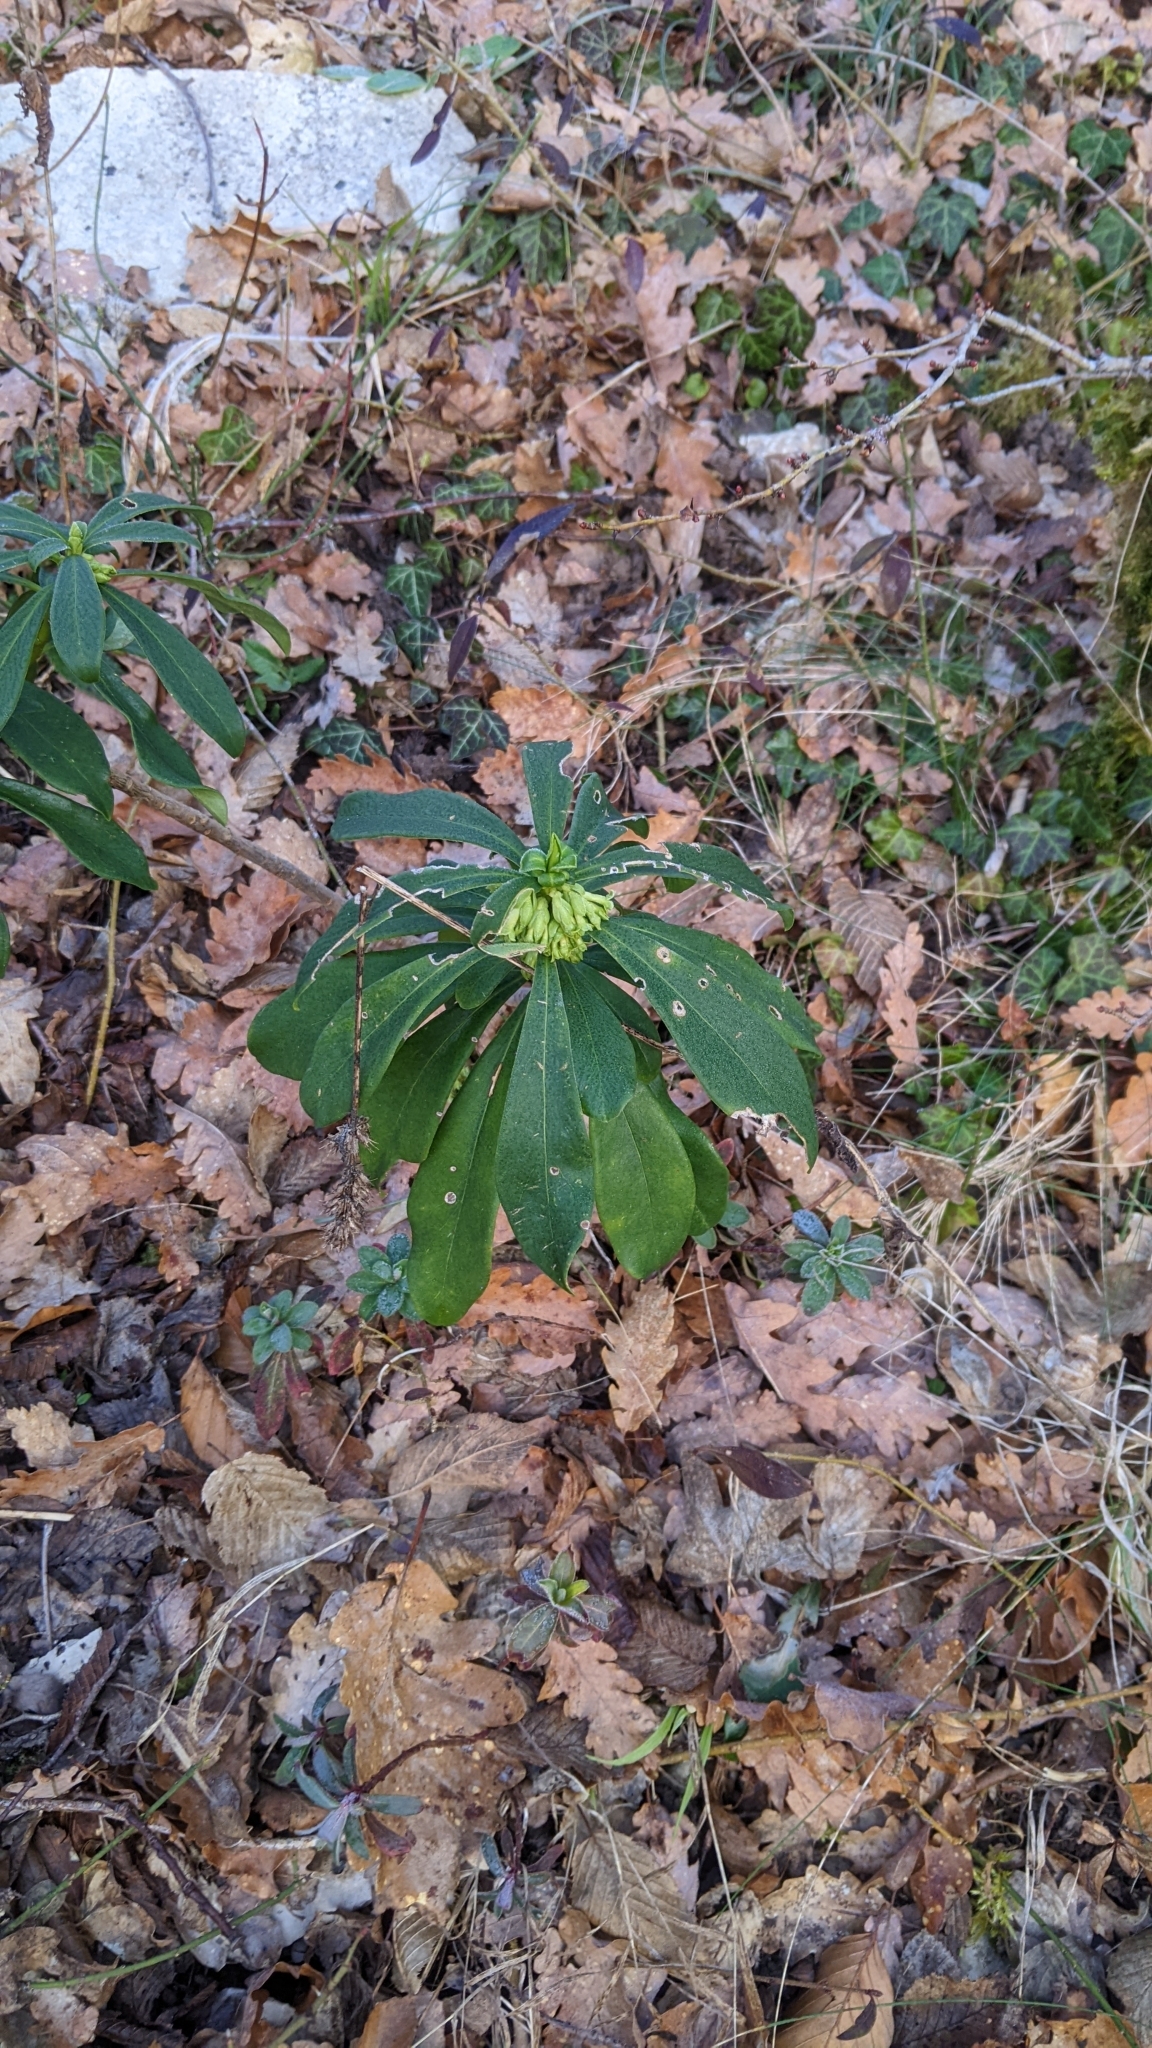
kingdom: Plantae
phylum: Tracheophyta
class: Magnoliopsida
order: Malvales
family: Thymelaeaceae
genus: Daphne
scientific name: Daphne laureola
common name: Spurge-laurel
